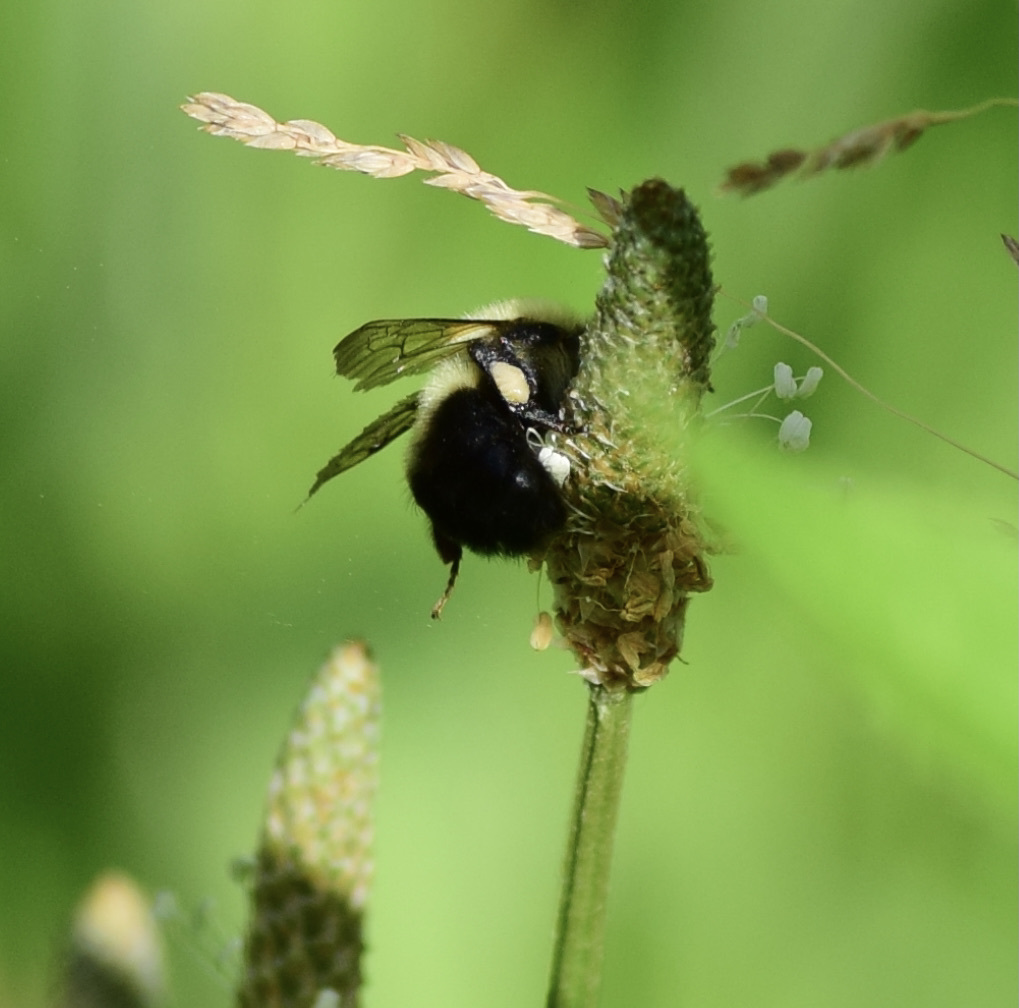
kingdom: Animalia
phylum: Arthropoda
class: Insecta
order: Hymenoptera
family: Apidae
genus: Bombus
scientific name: Bombus impatiens
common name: Common eastern bumble bee
